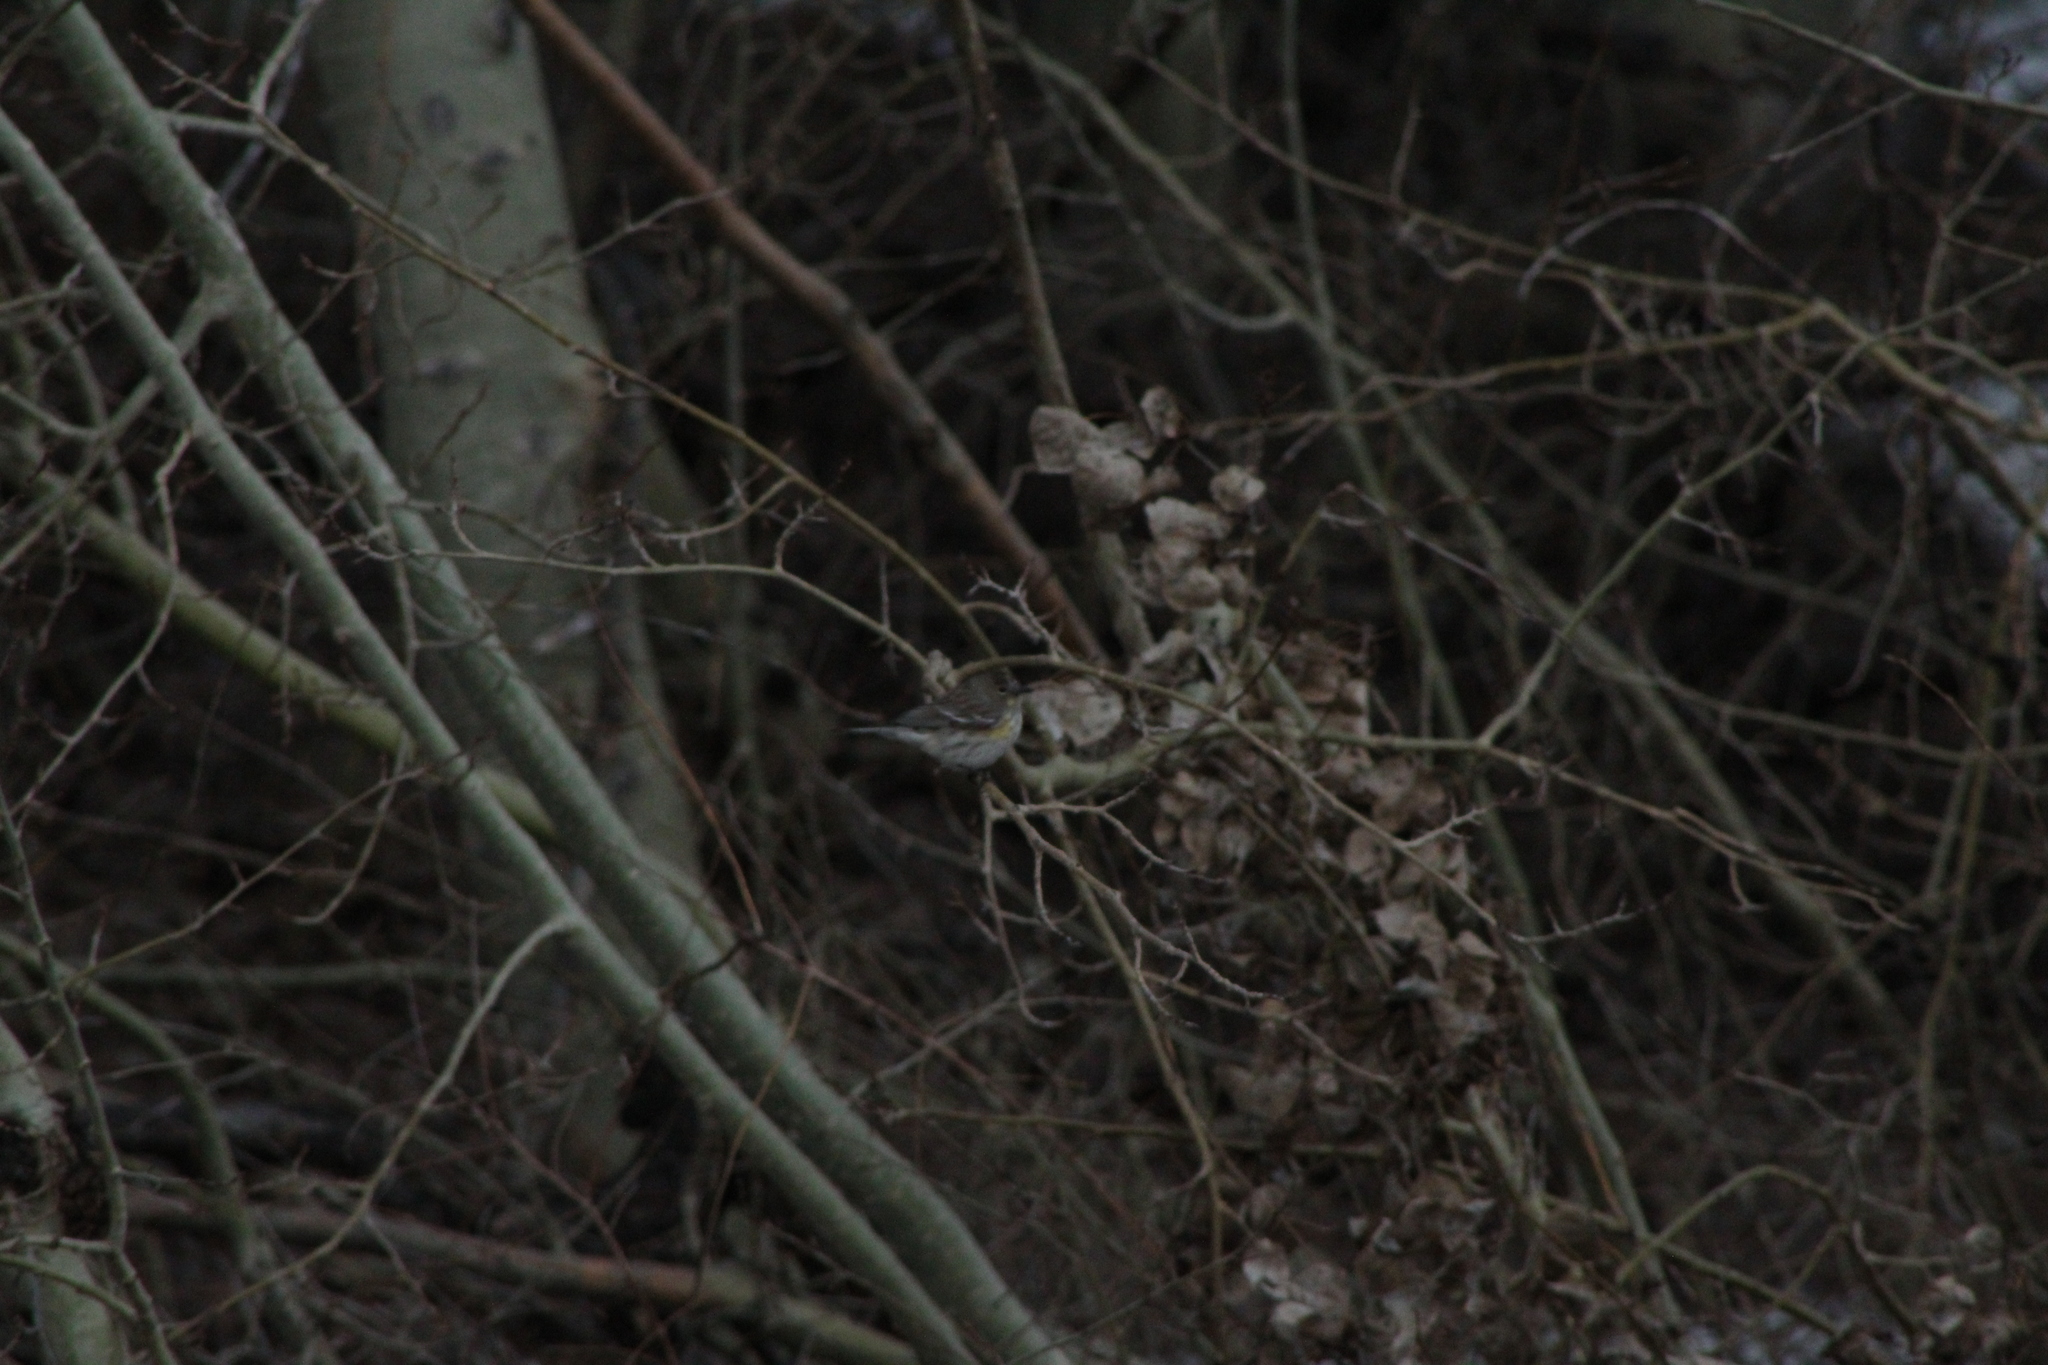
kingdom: Animalia
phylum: Chordata
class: Aves
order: Passeriformes
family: Parulidae
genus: Setophaga
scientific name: Setophaga coronata
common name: Myrtle warbler
